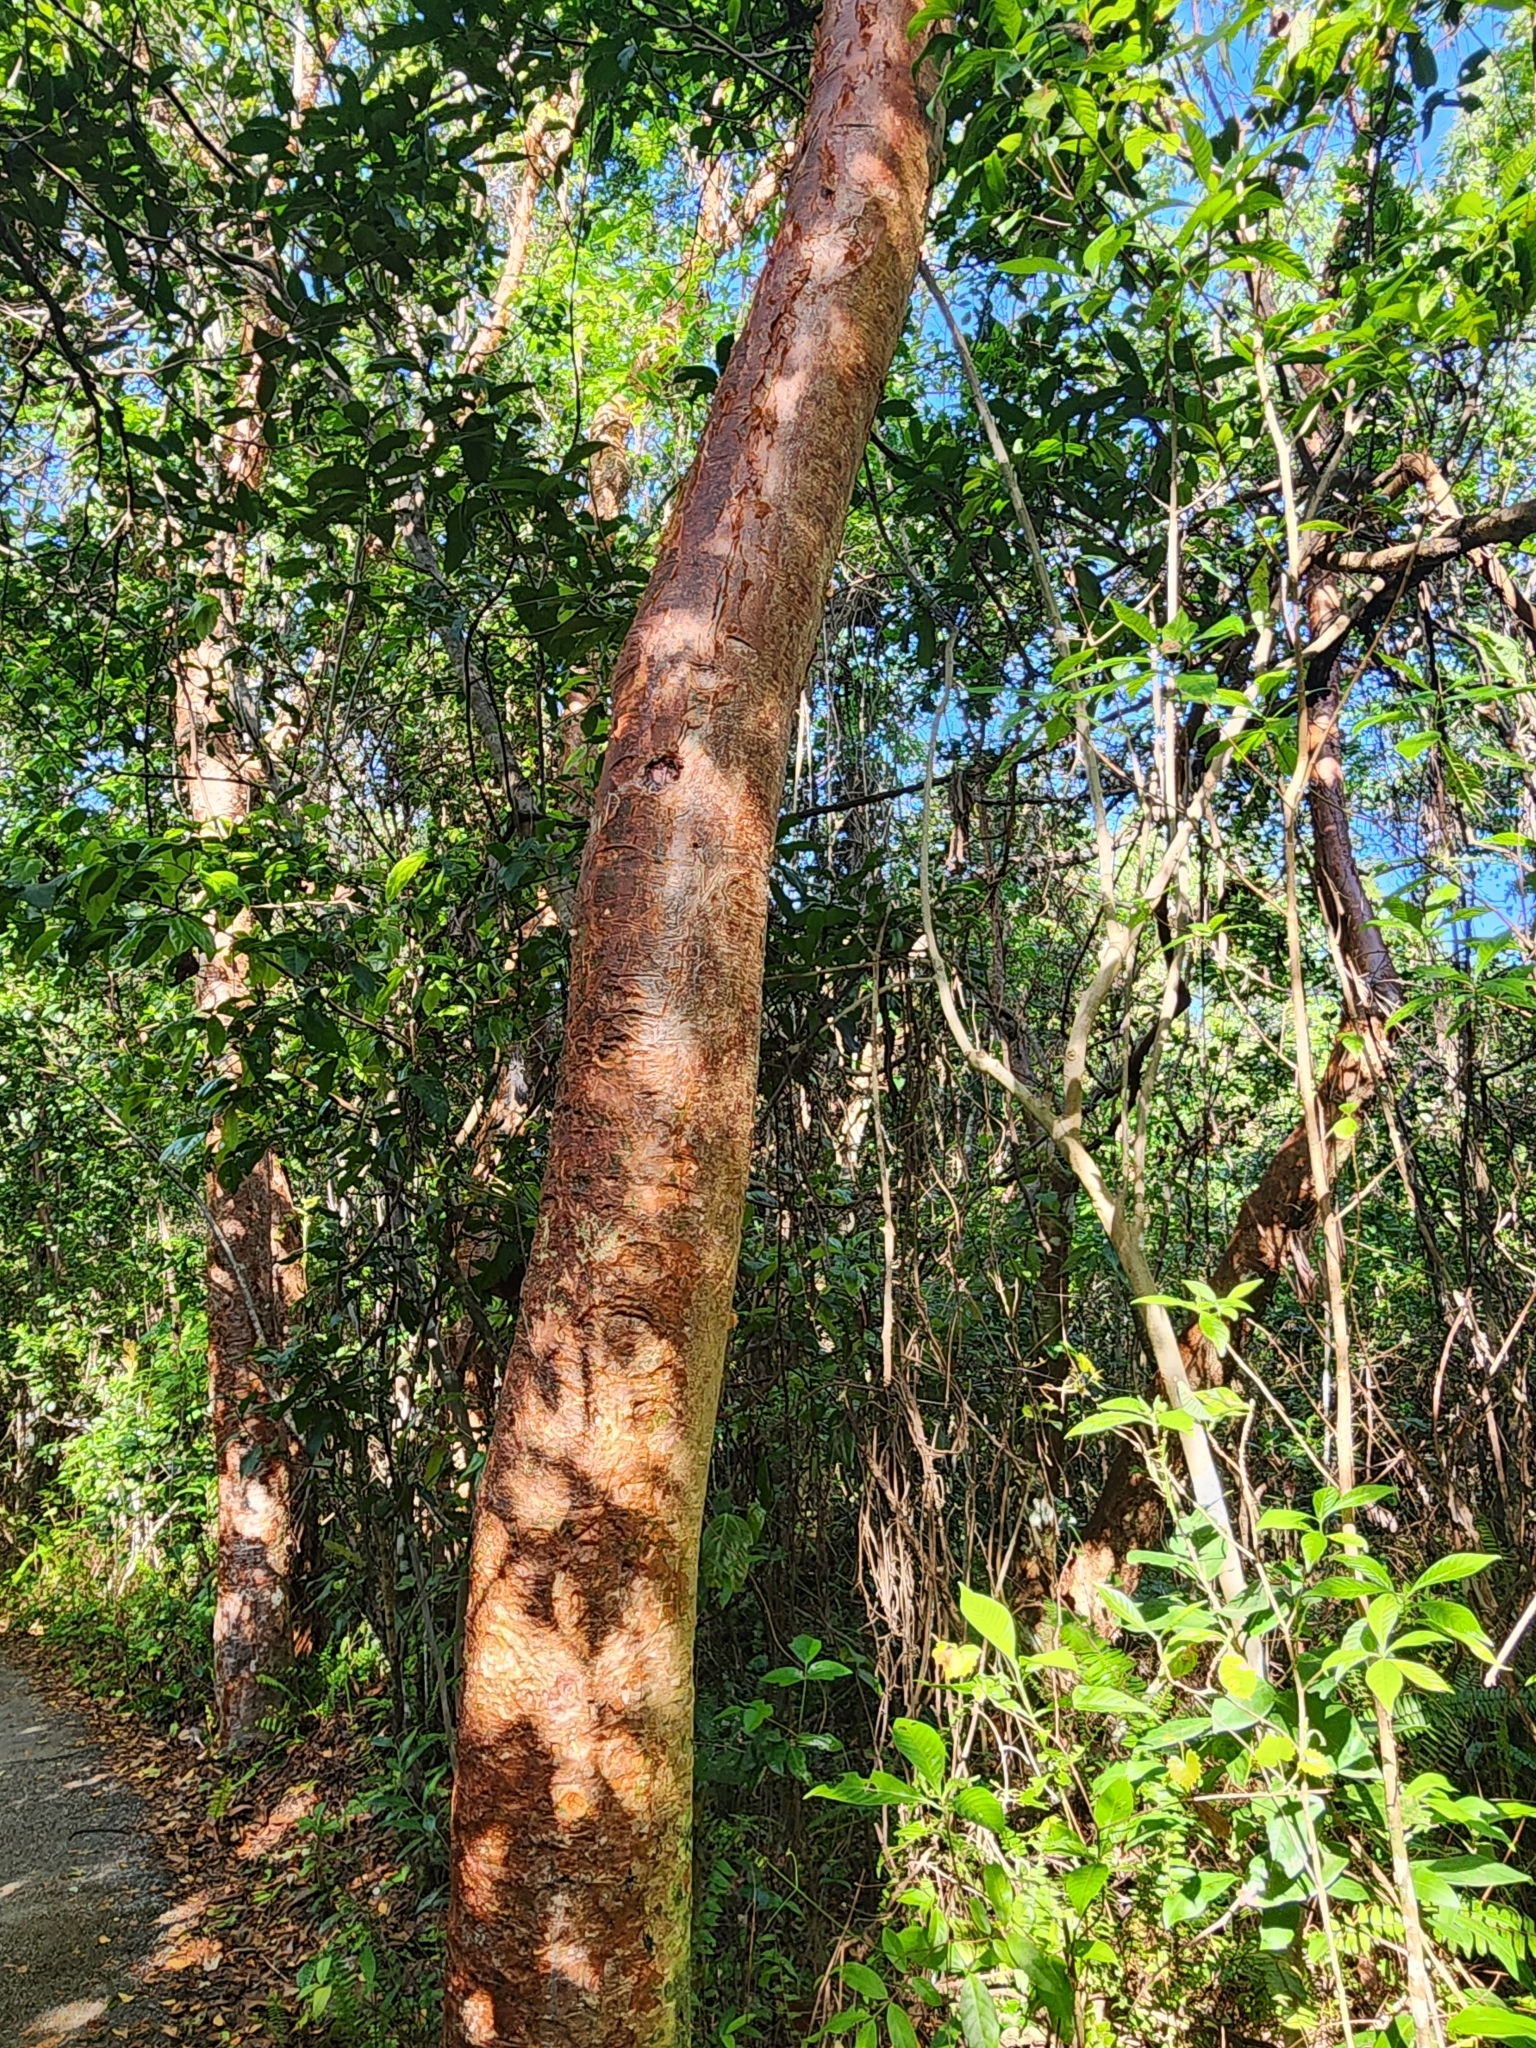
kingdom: Plantae
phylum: Tracheophyta
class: Magnoliopsida
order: Sapindales
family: Burseraceae
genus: Bursera
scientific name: Bursera simaruba
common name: Turpentine tree
